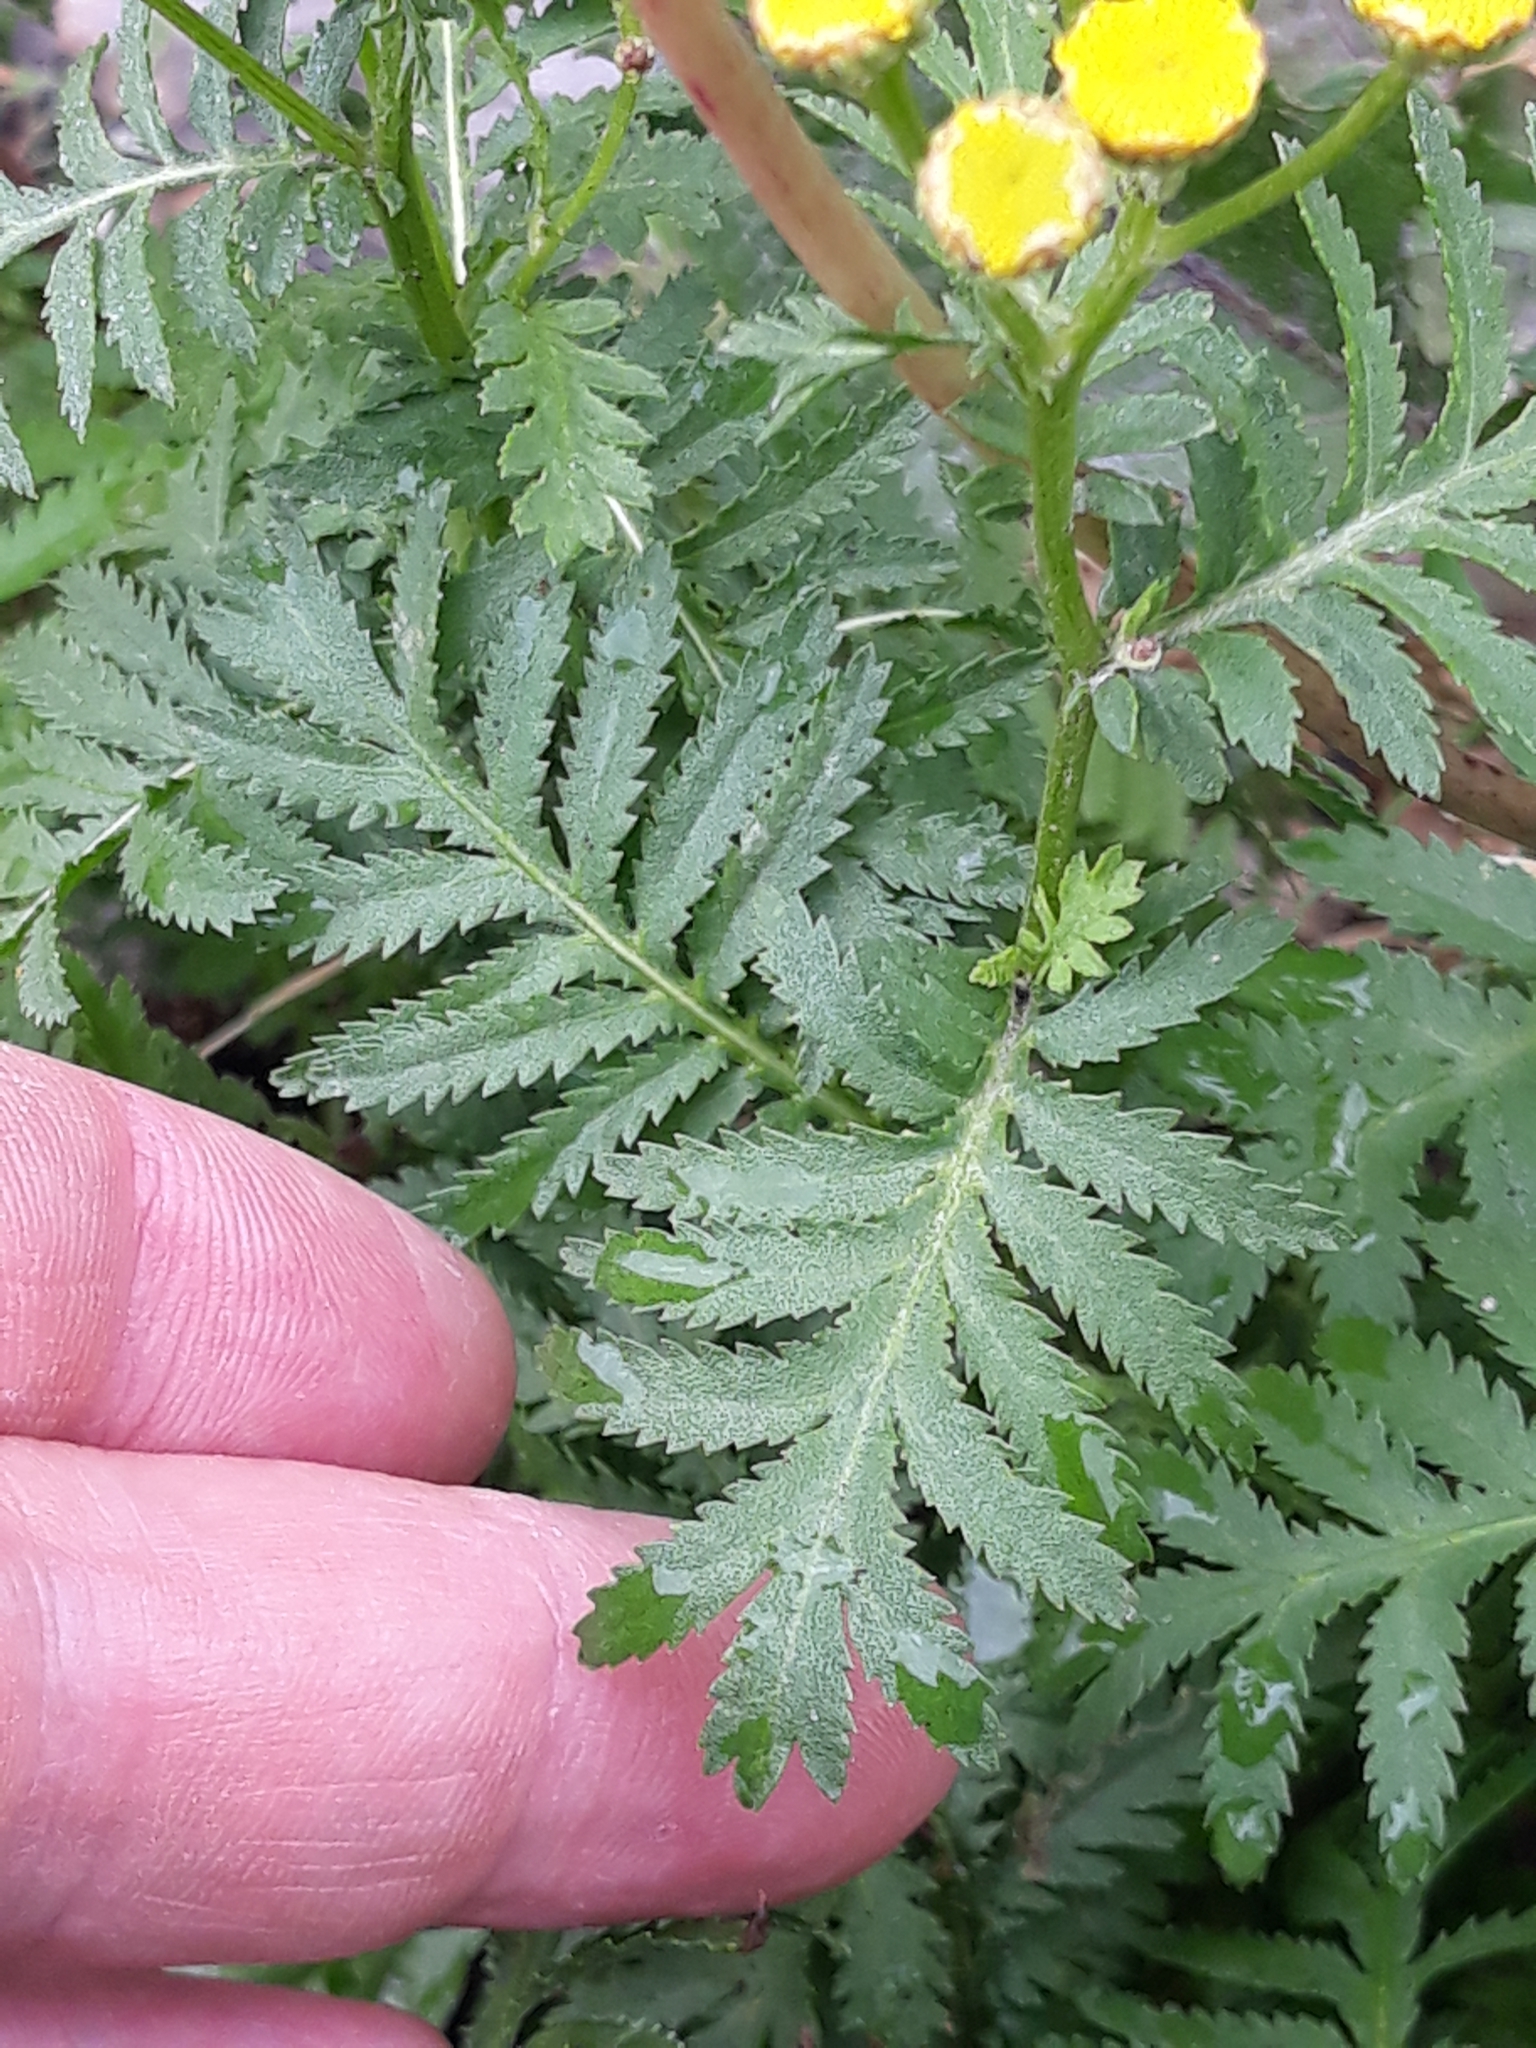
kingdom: Plantae
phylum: Tracheophyta
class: Magnoliopsida
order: Asterales
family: Asteraceae
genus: Tanacetum
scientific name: Tanacetum vulgare
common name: Common tansy
